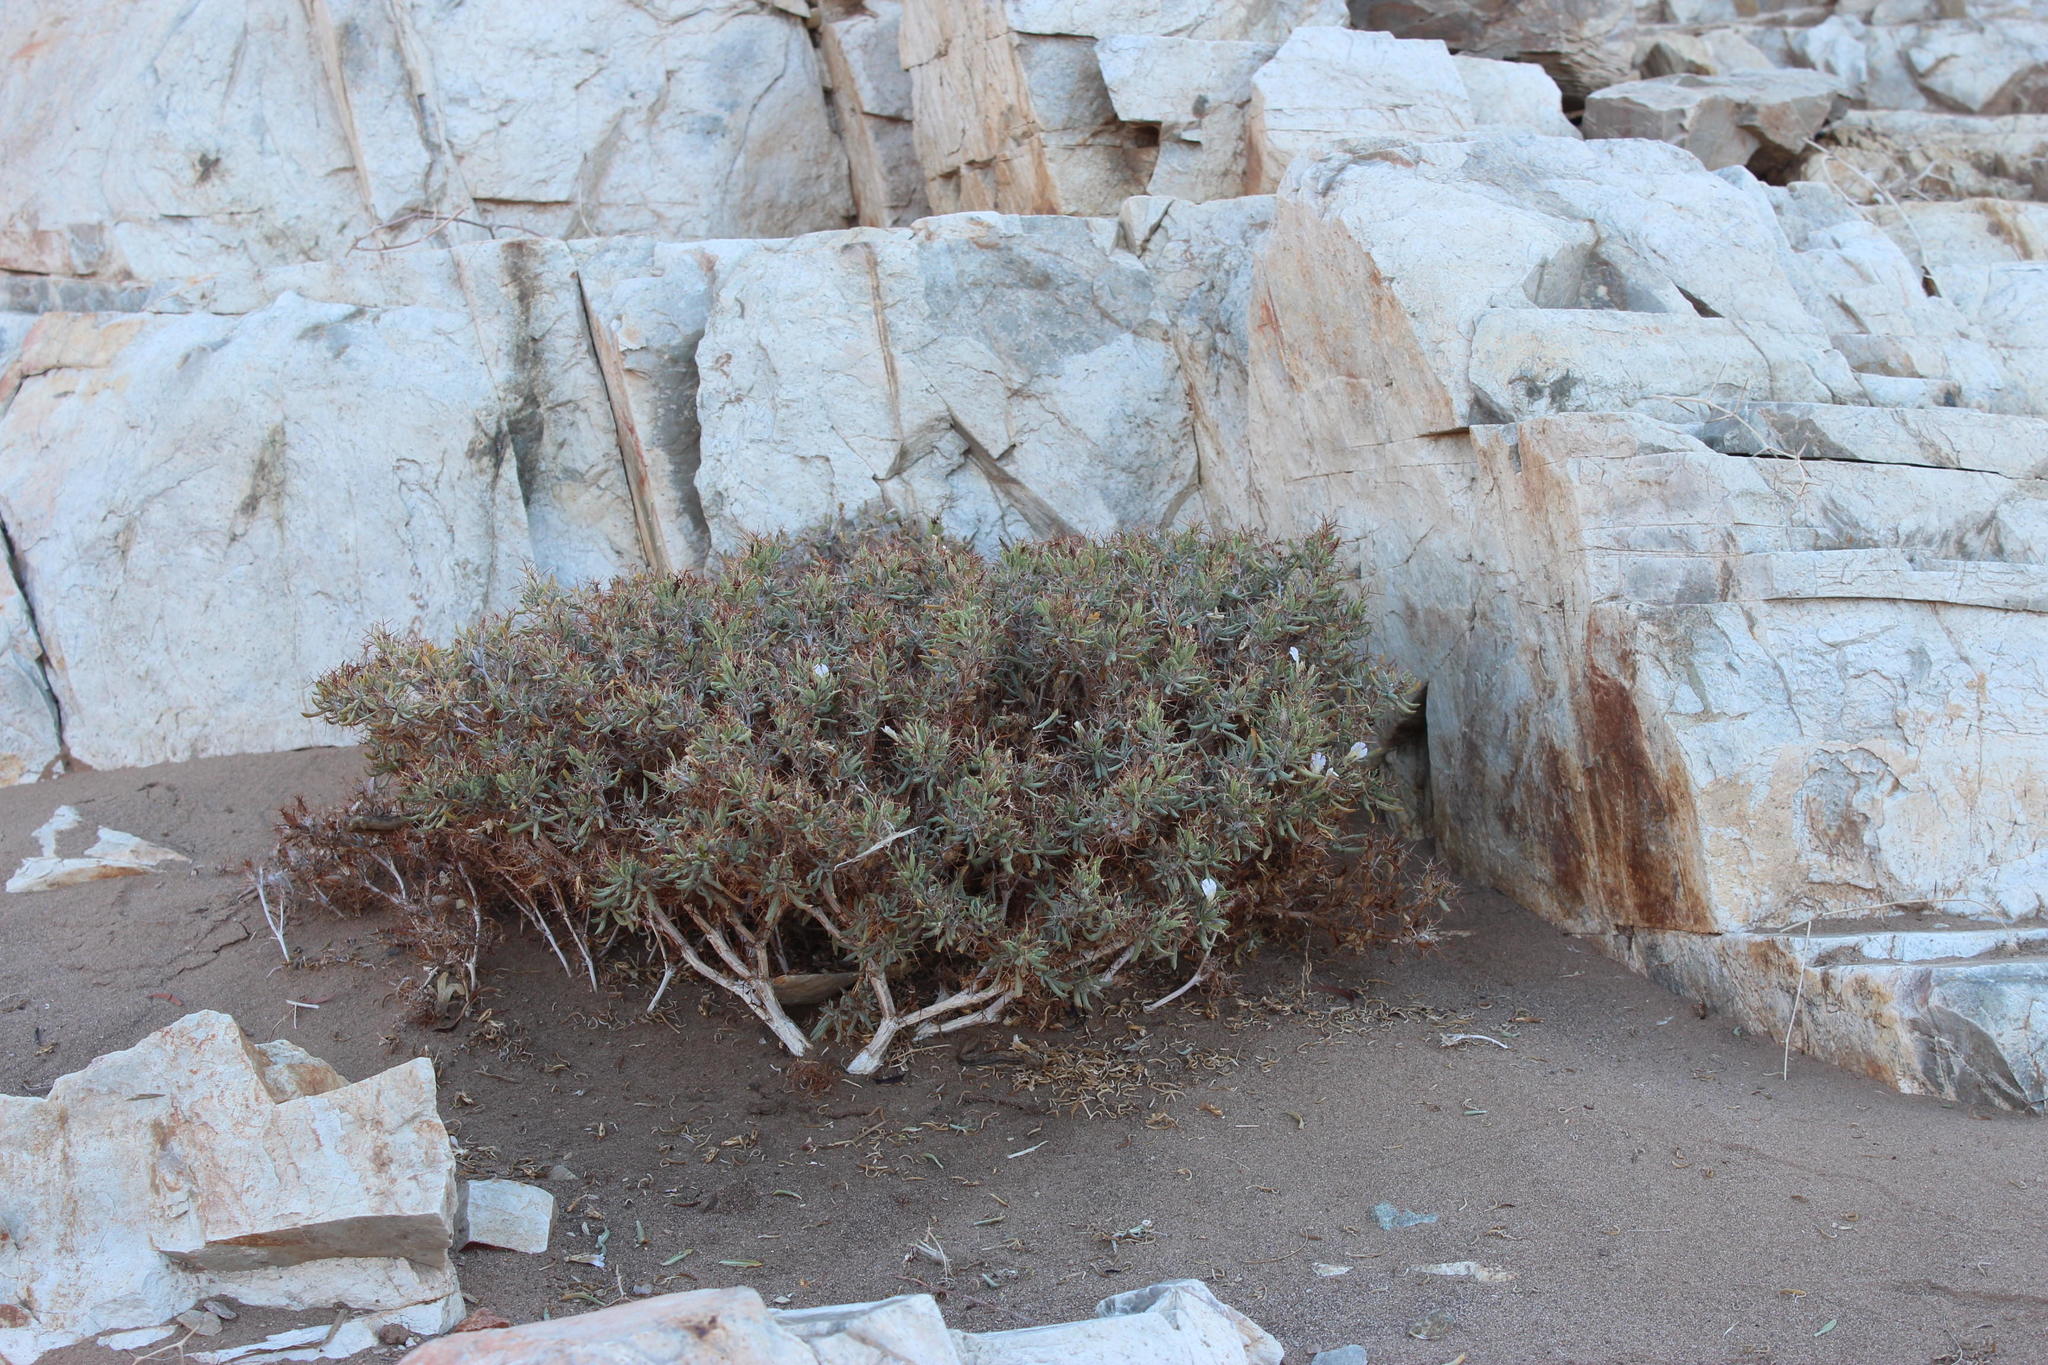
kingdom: Plantae
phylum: Tracheophyta
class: Magnoliopsida
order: Lamiales
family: Acanthaceae
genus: Blepharis
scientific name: Blepharis furcata
